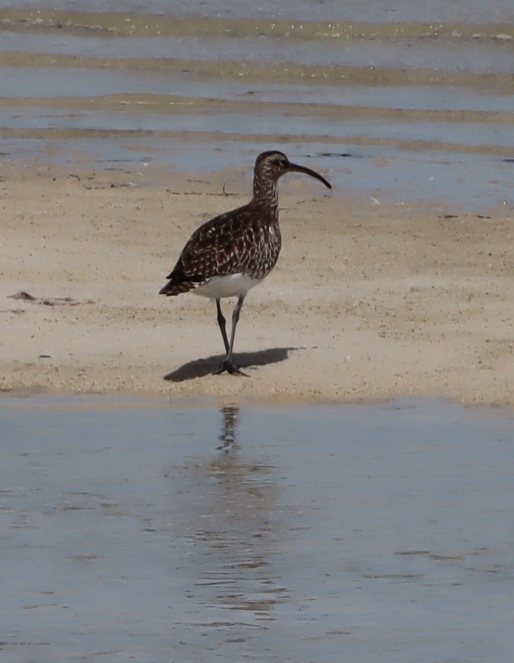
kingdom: Animalia
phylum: Chordata
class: Aves
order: Charadriiformes
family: Scolopacidae
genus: Numenius
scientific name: Numenius phaeopus
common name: Whimbrel
